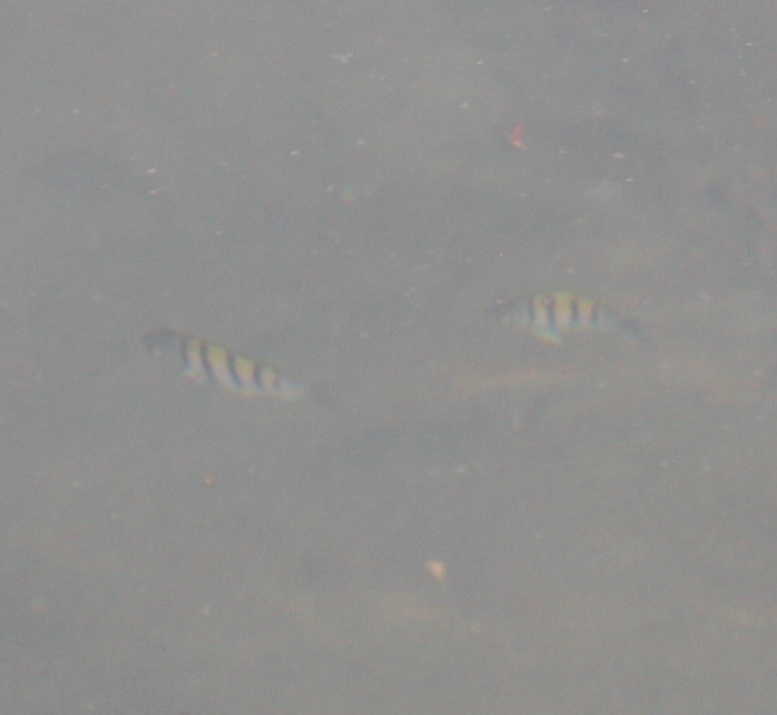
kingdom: Animalia
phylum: Chordata
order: Perciformes
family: Pomacentridae
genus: Abudefduf
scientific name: Abudefduf troschelii
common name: Panamic sergeant major
